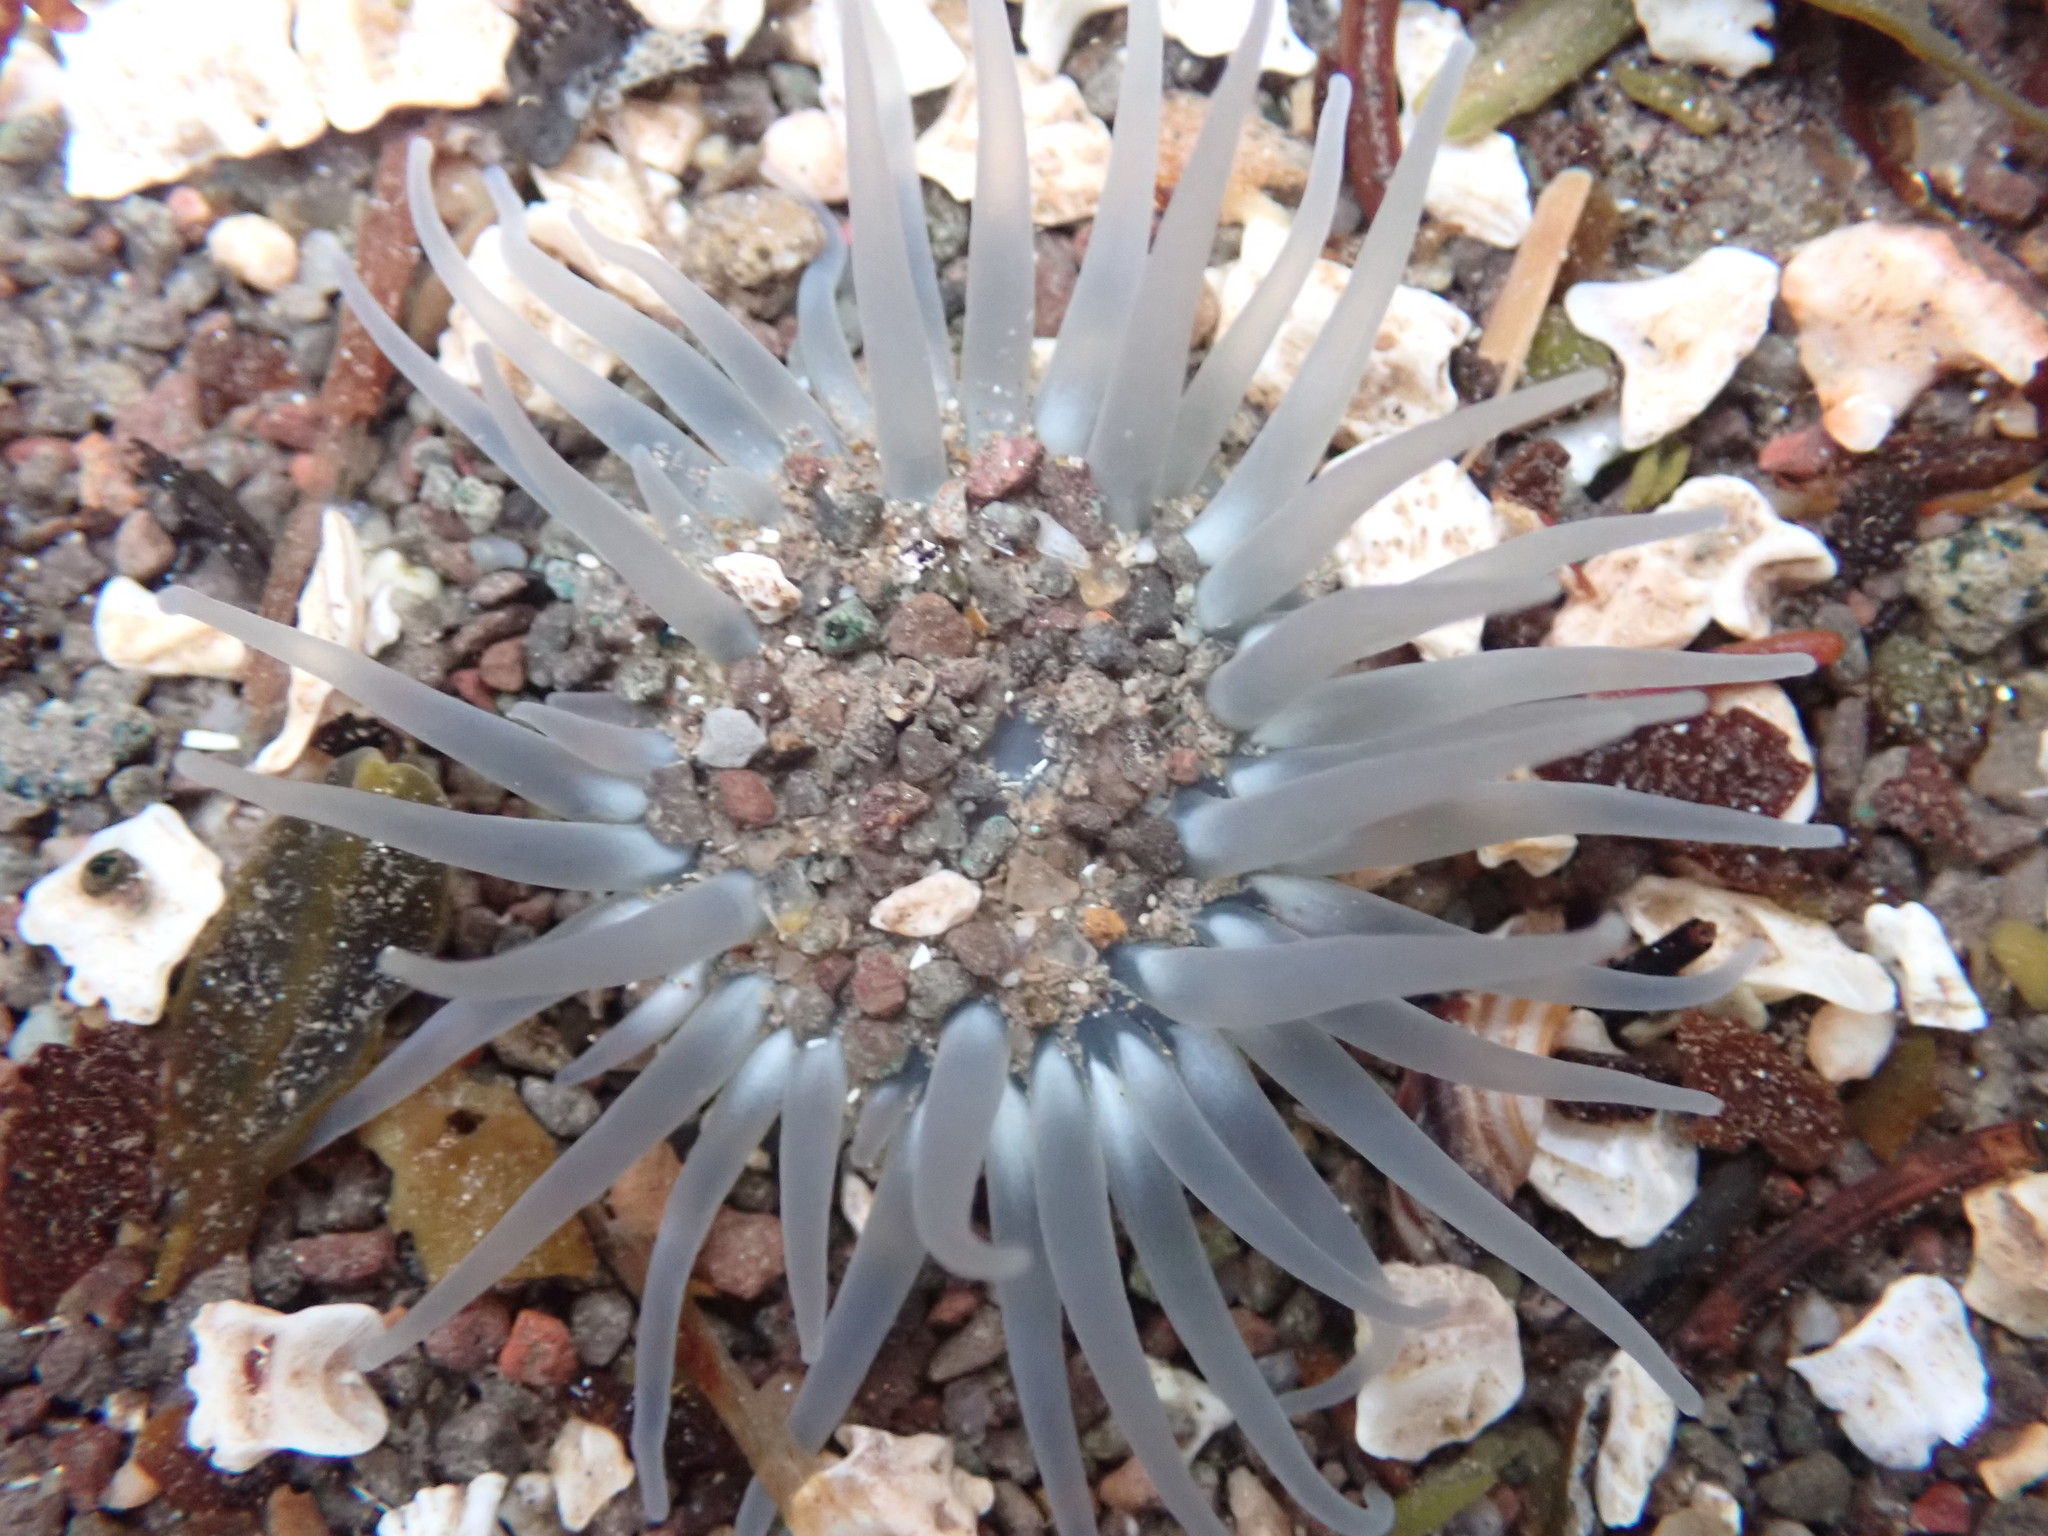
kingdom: Animalia
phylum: Cnidaria
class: Anthozoa
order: Actiniaria
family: Actiniidae
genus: Aulactinia
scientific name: Aulactinia stella
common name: Silver-spotted sea anemone
